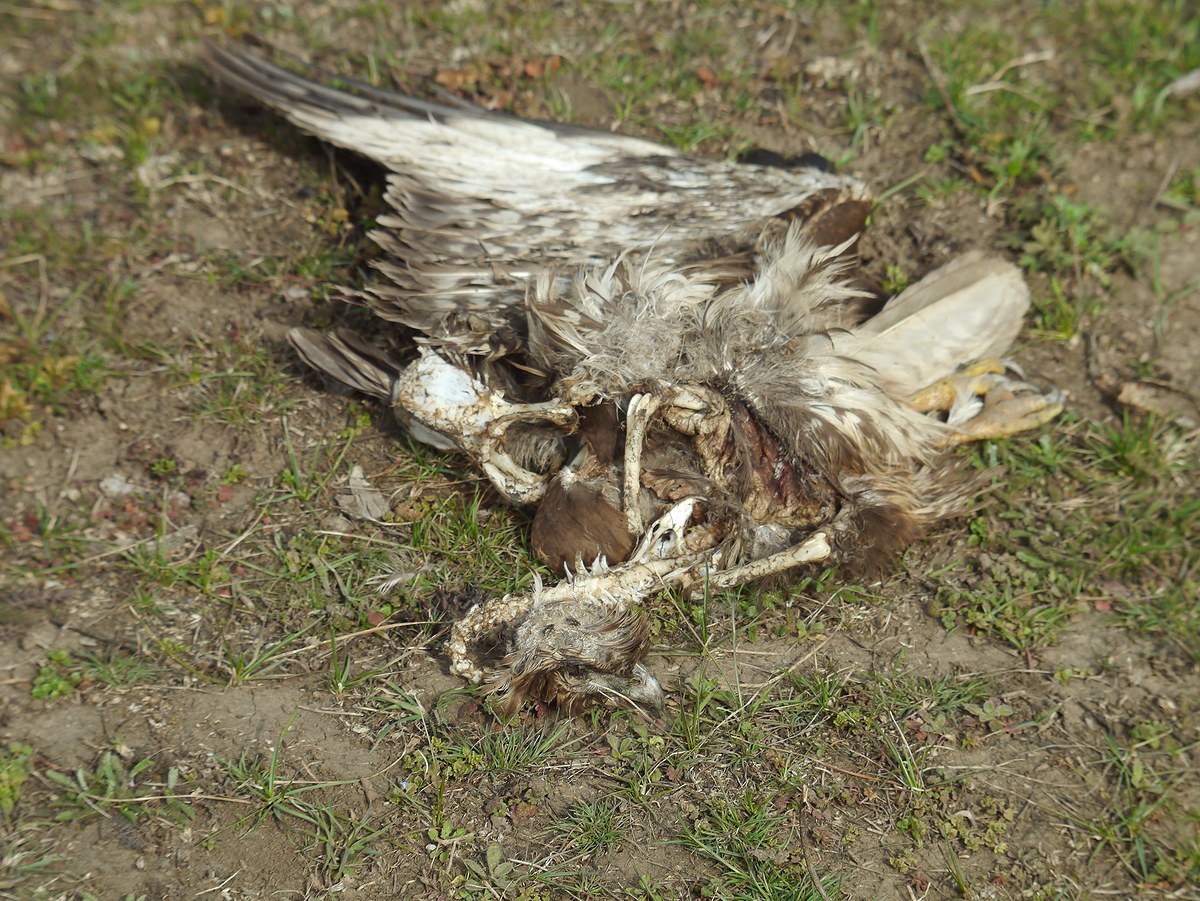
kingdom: Animalia
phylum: Chordata
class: Aves
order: Accipitriformes
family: Accipitridae
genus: Buteo
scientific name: Buteo buteo
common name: Common buzzard
